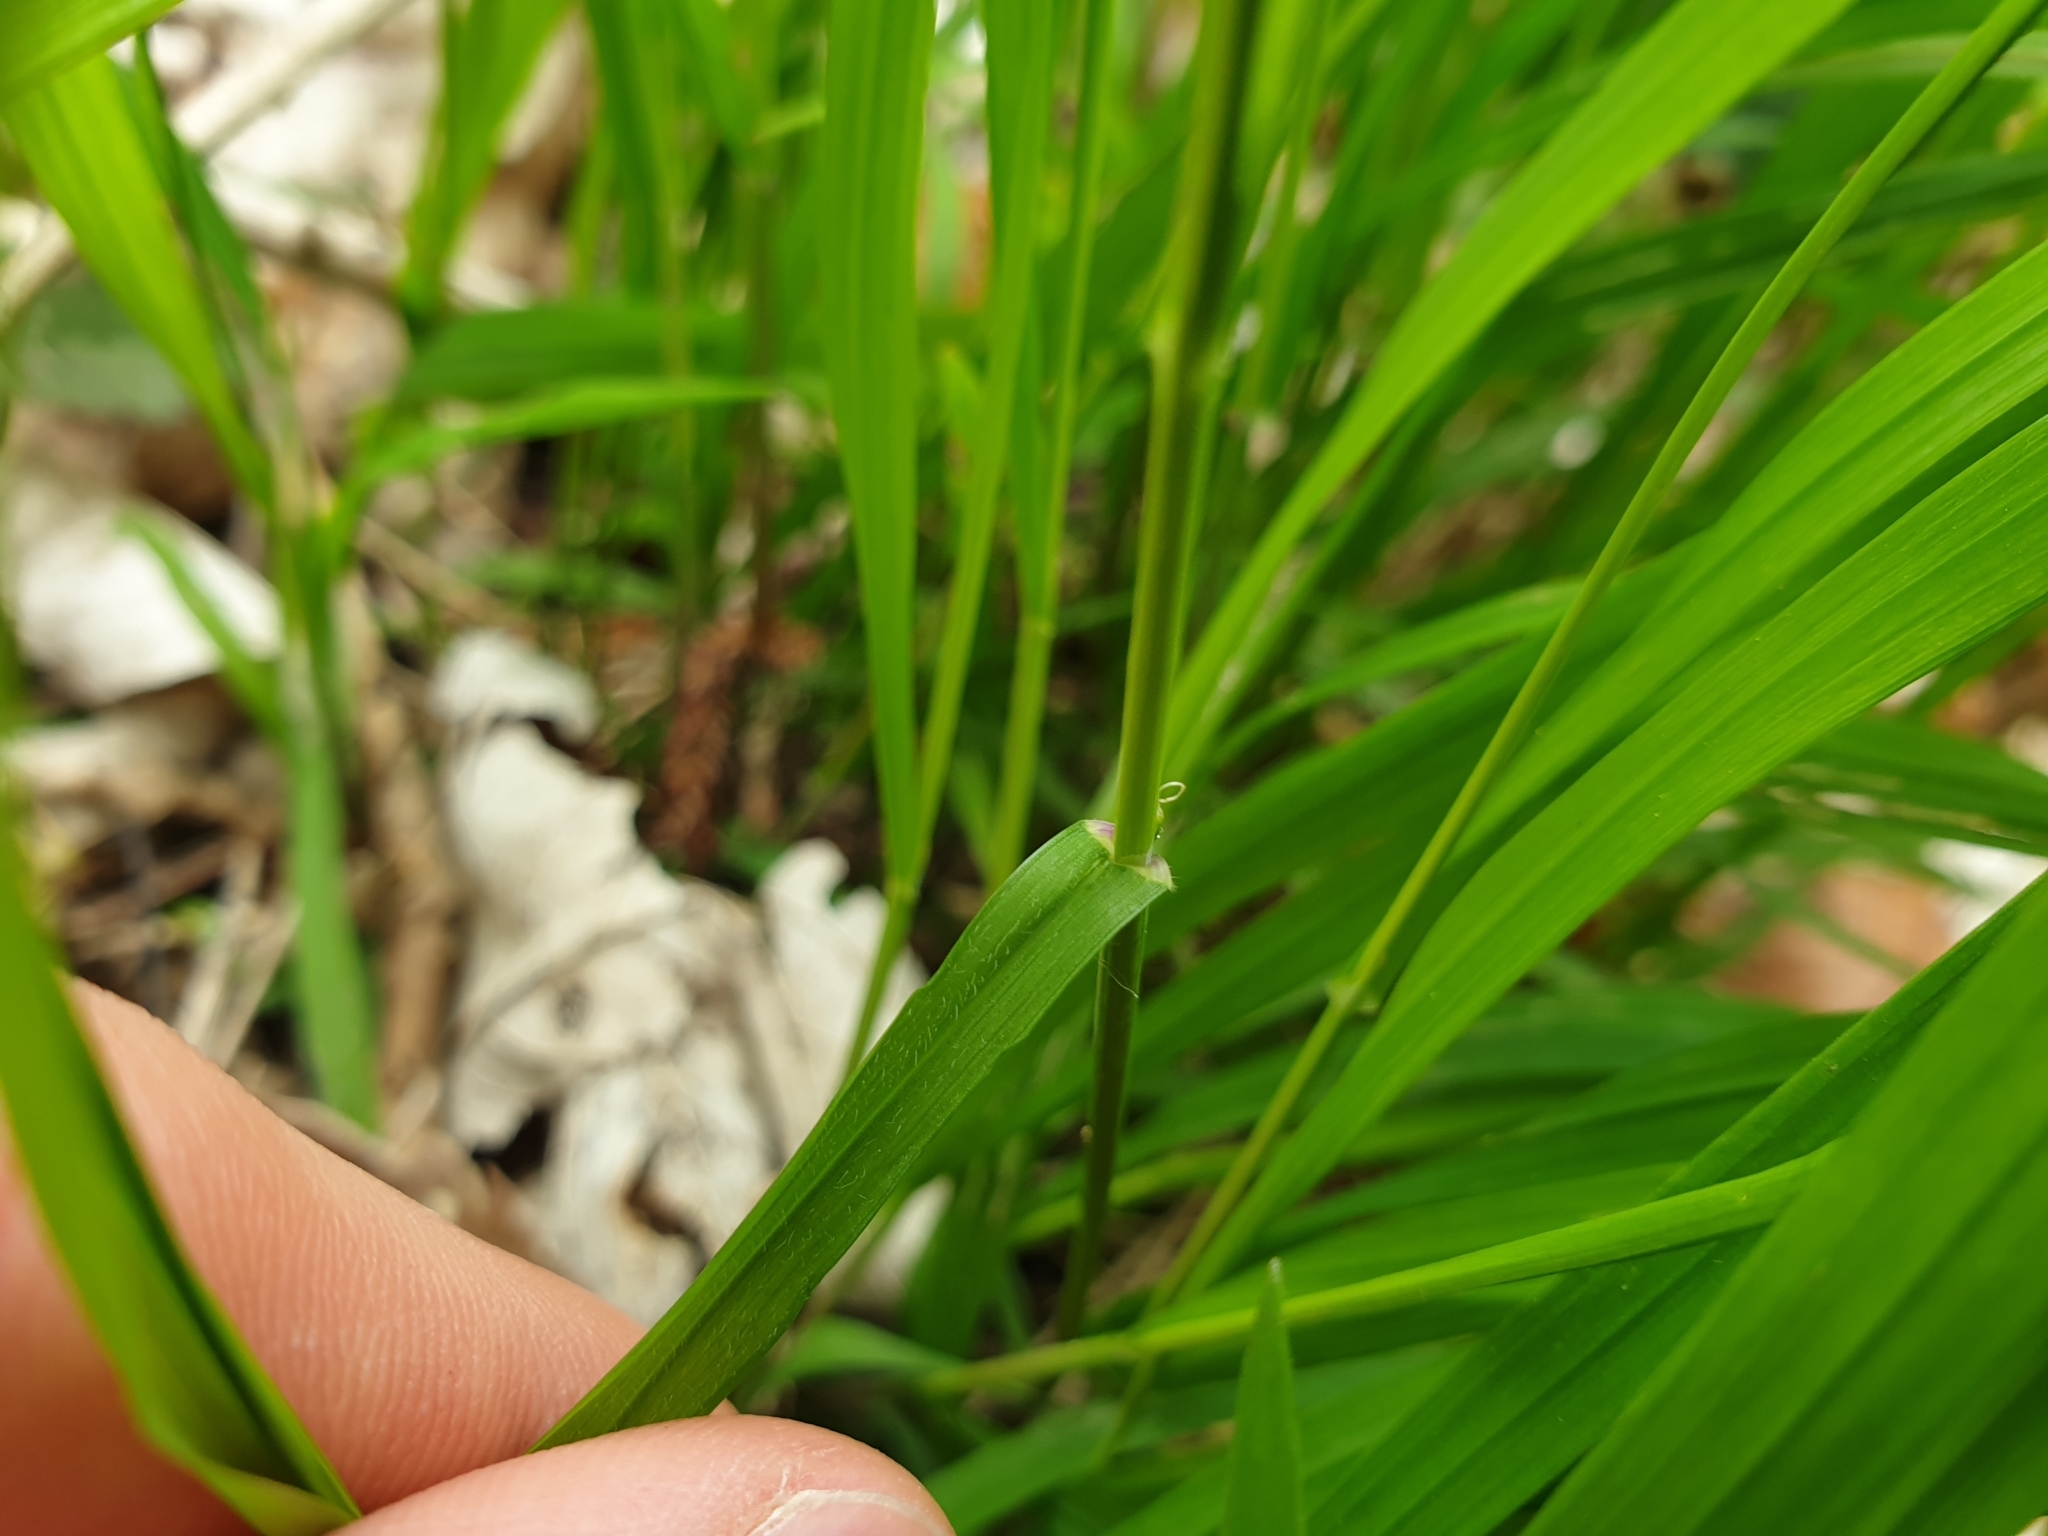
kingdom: Plantae
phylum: Tracheophyta
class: Liliopsida
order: Poales
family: Poaceae
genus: Melica
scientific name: Melica uniflora
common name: Wood melick
